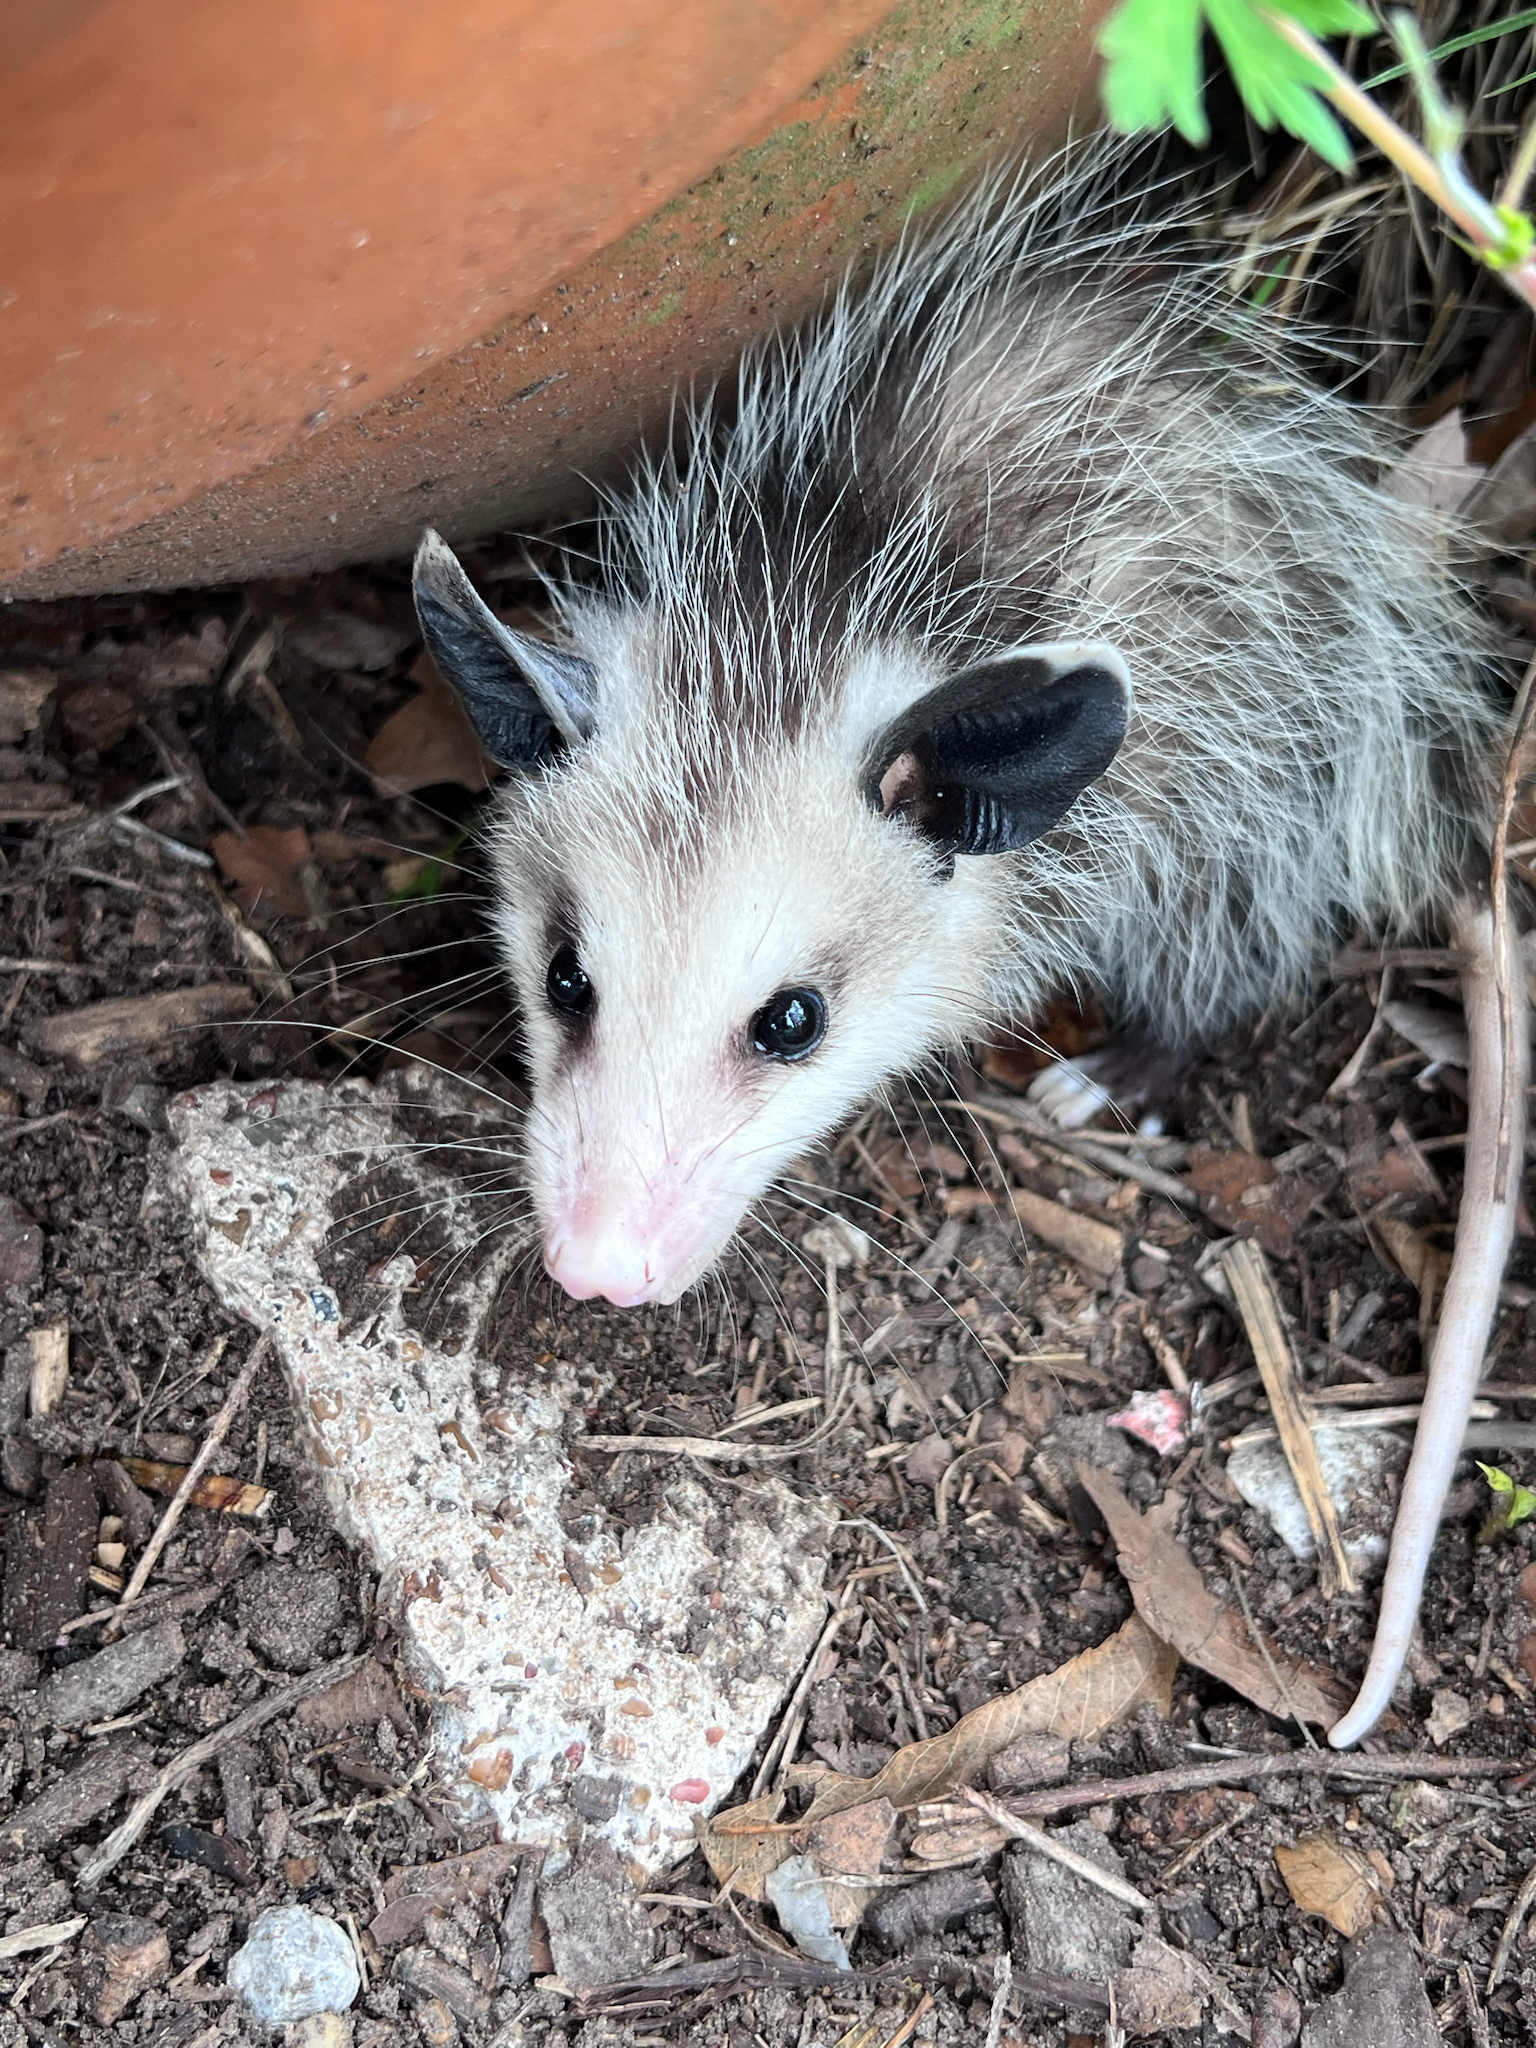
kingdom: Animalia
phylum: Chordata
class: Mammalia
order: Didelphimorphia
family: Didelphidae
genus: Didelphis
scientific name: Didelphis virginiana
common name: Virginia opossum
